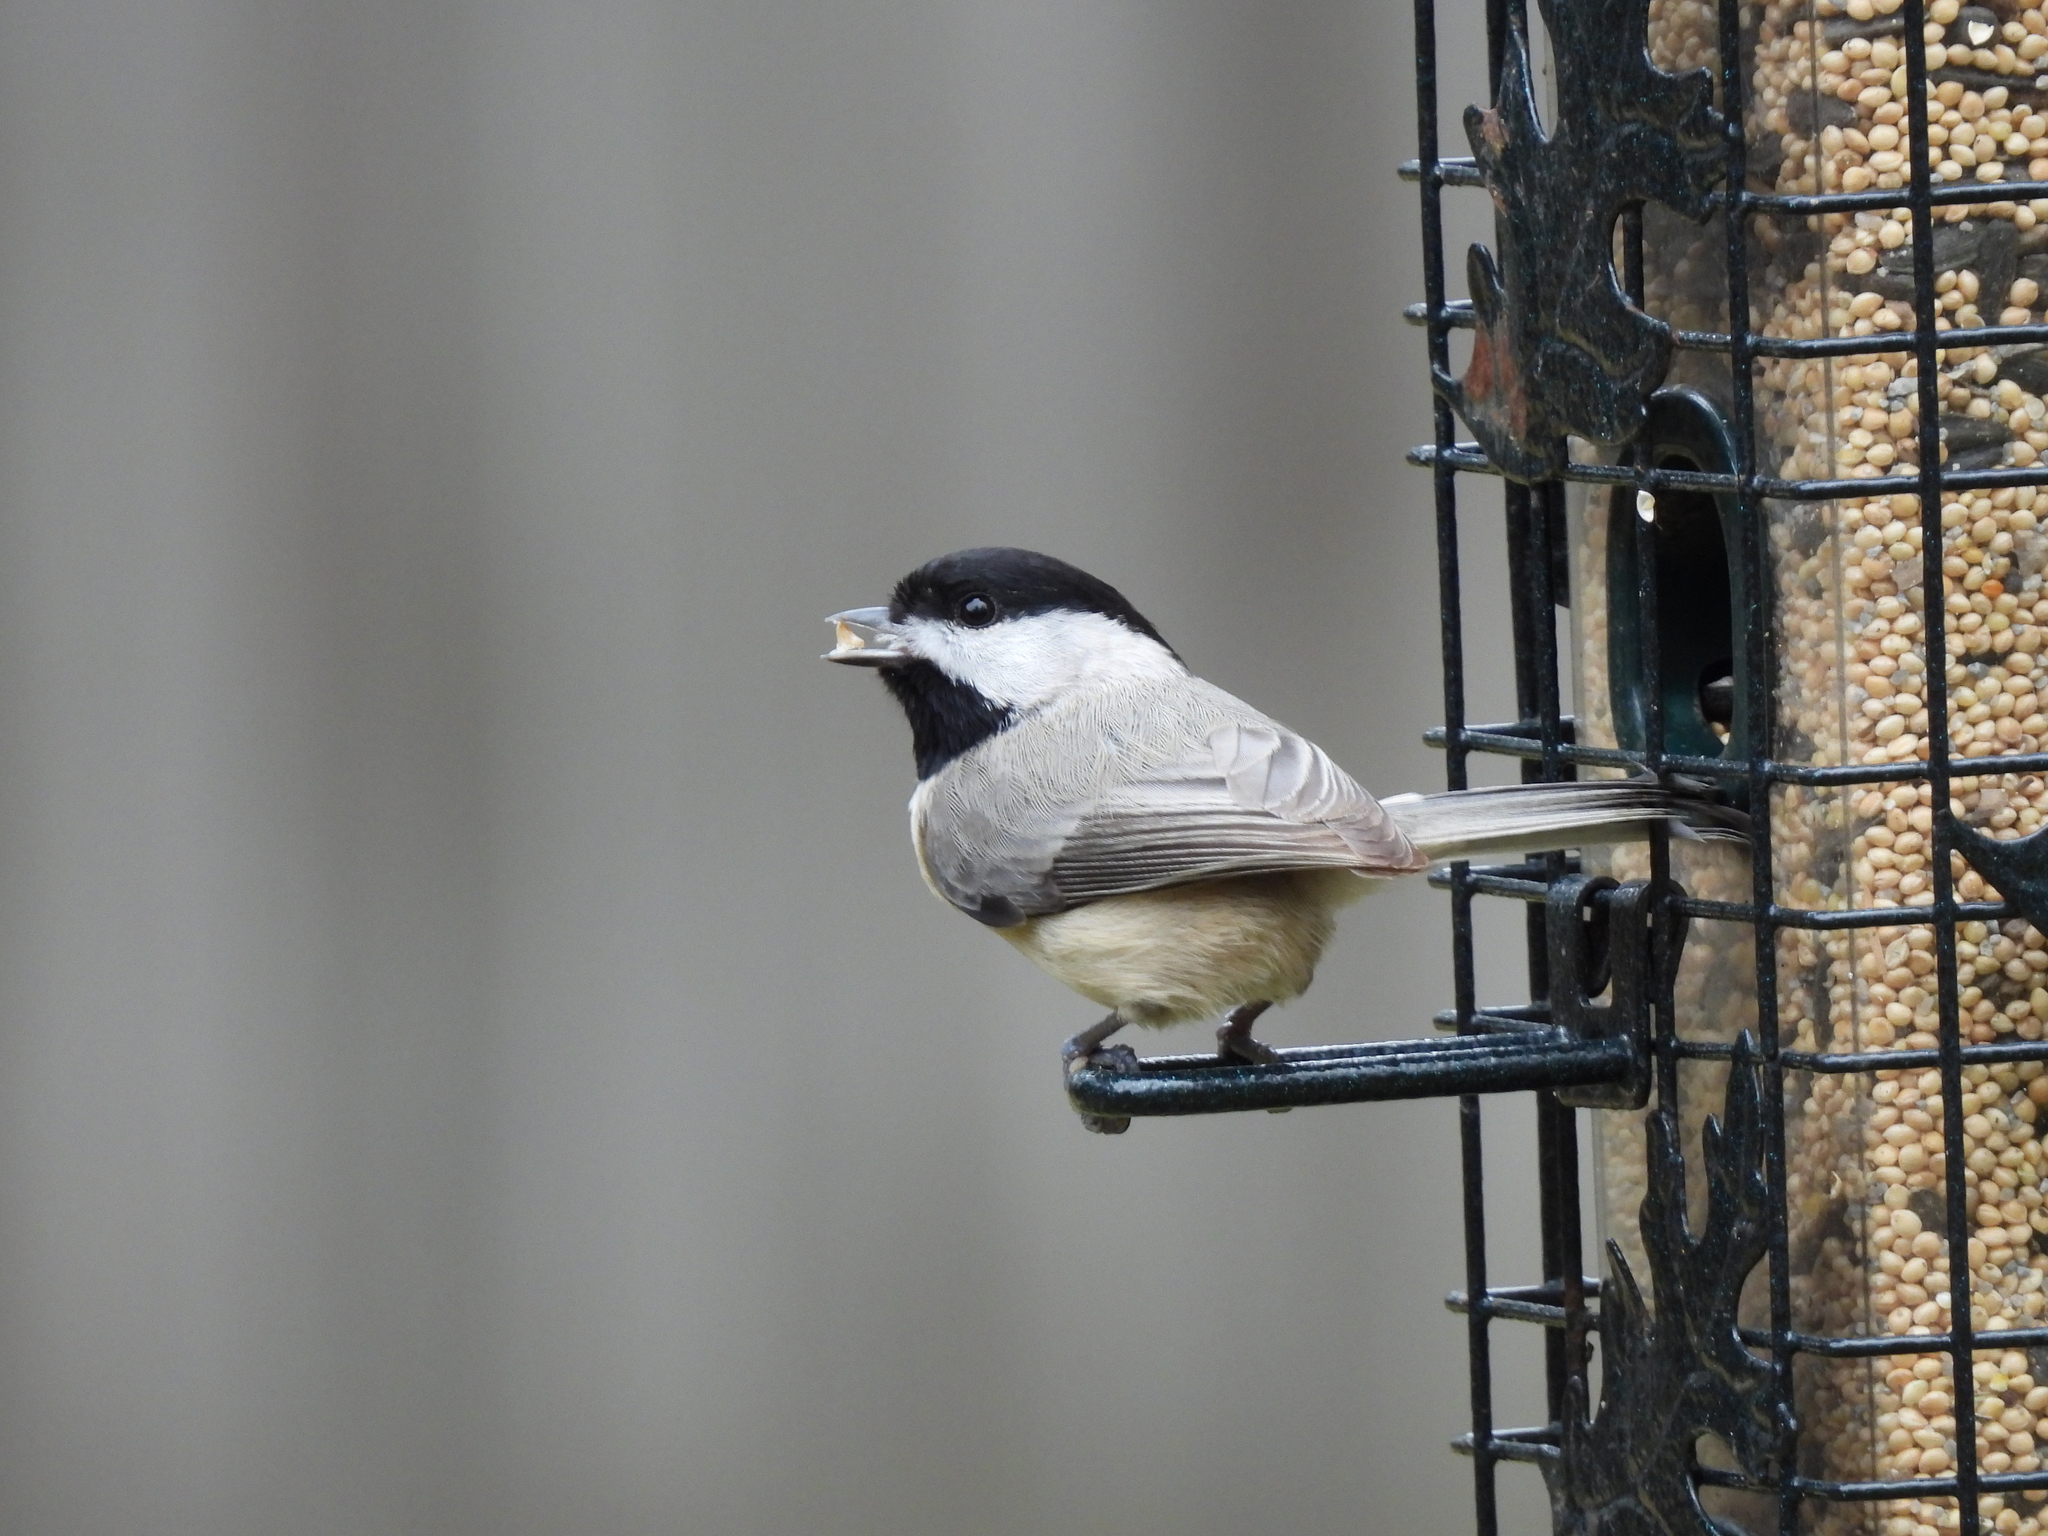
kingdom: Animalia
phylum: Chordata
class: Aves
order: Passeriformes
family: Paridae
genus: Poecile
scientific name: Poecile carolinensis
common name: Carolina chickadee
